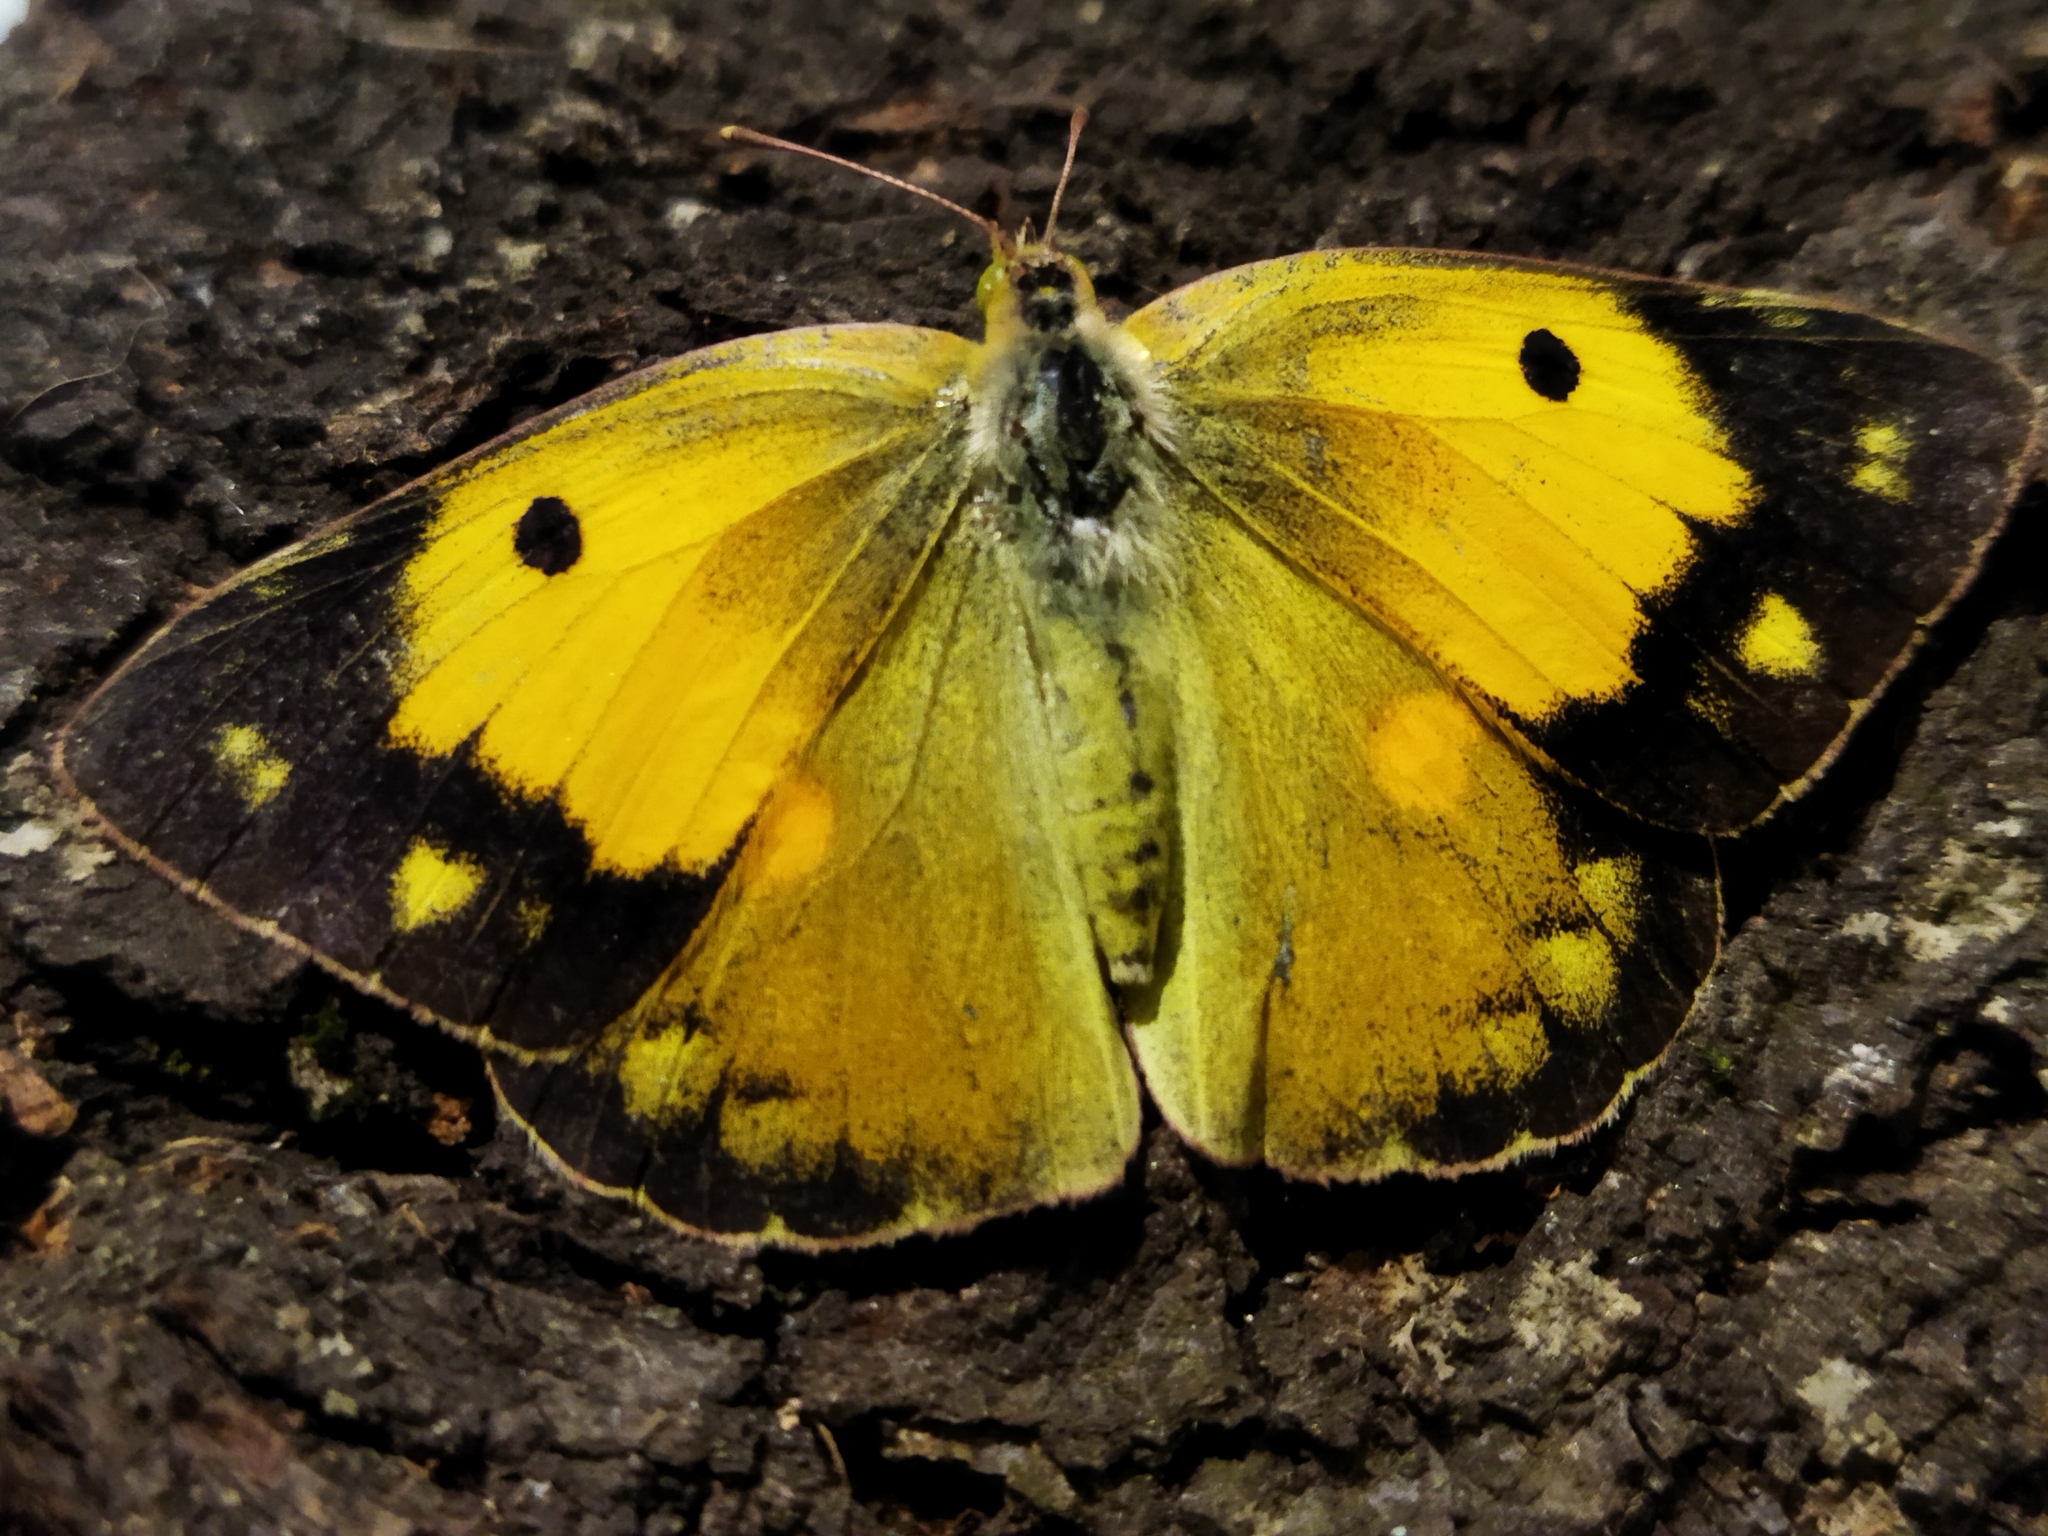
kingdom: Animalia
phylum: Arthropoda
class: Insecta
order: Lepidoptera
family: Pieridae
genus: Colias
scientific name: Colias croceus
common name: Clouded yellow
